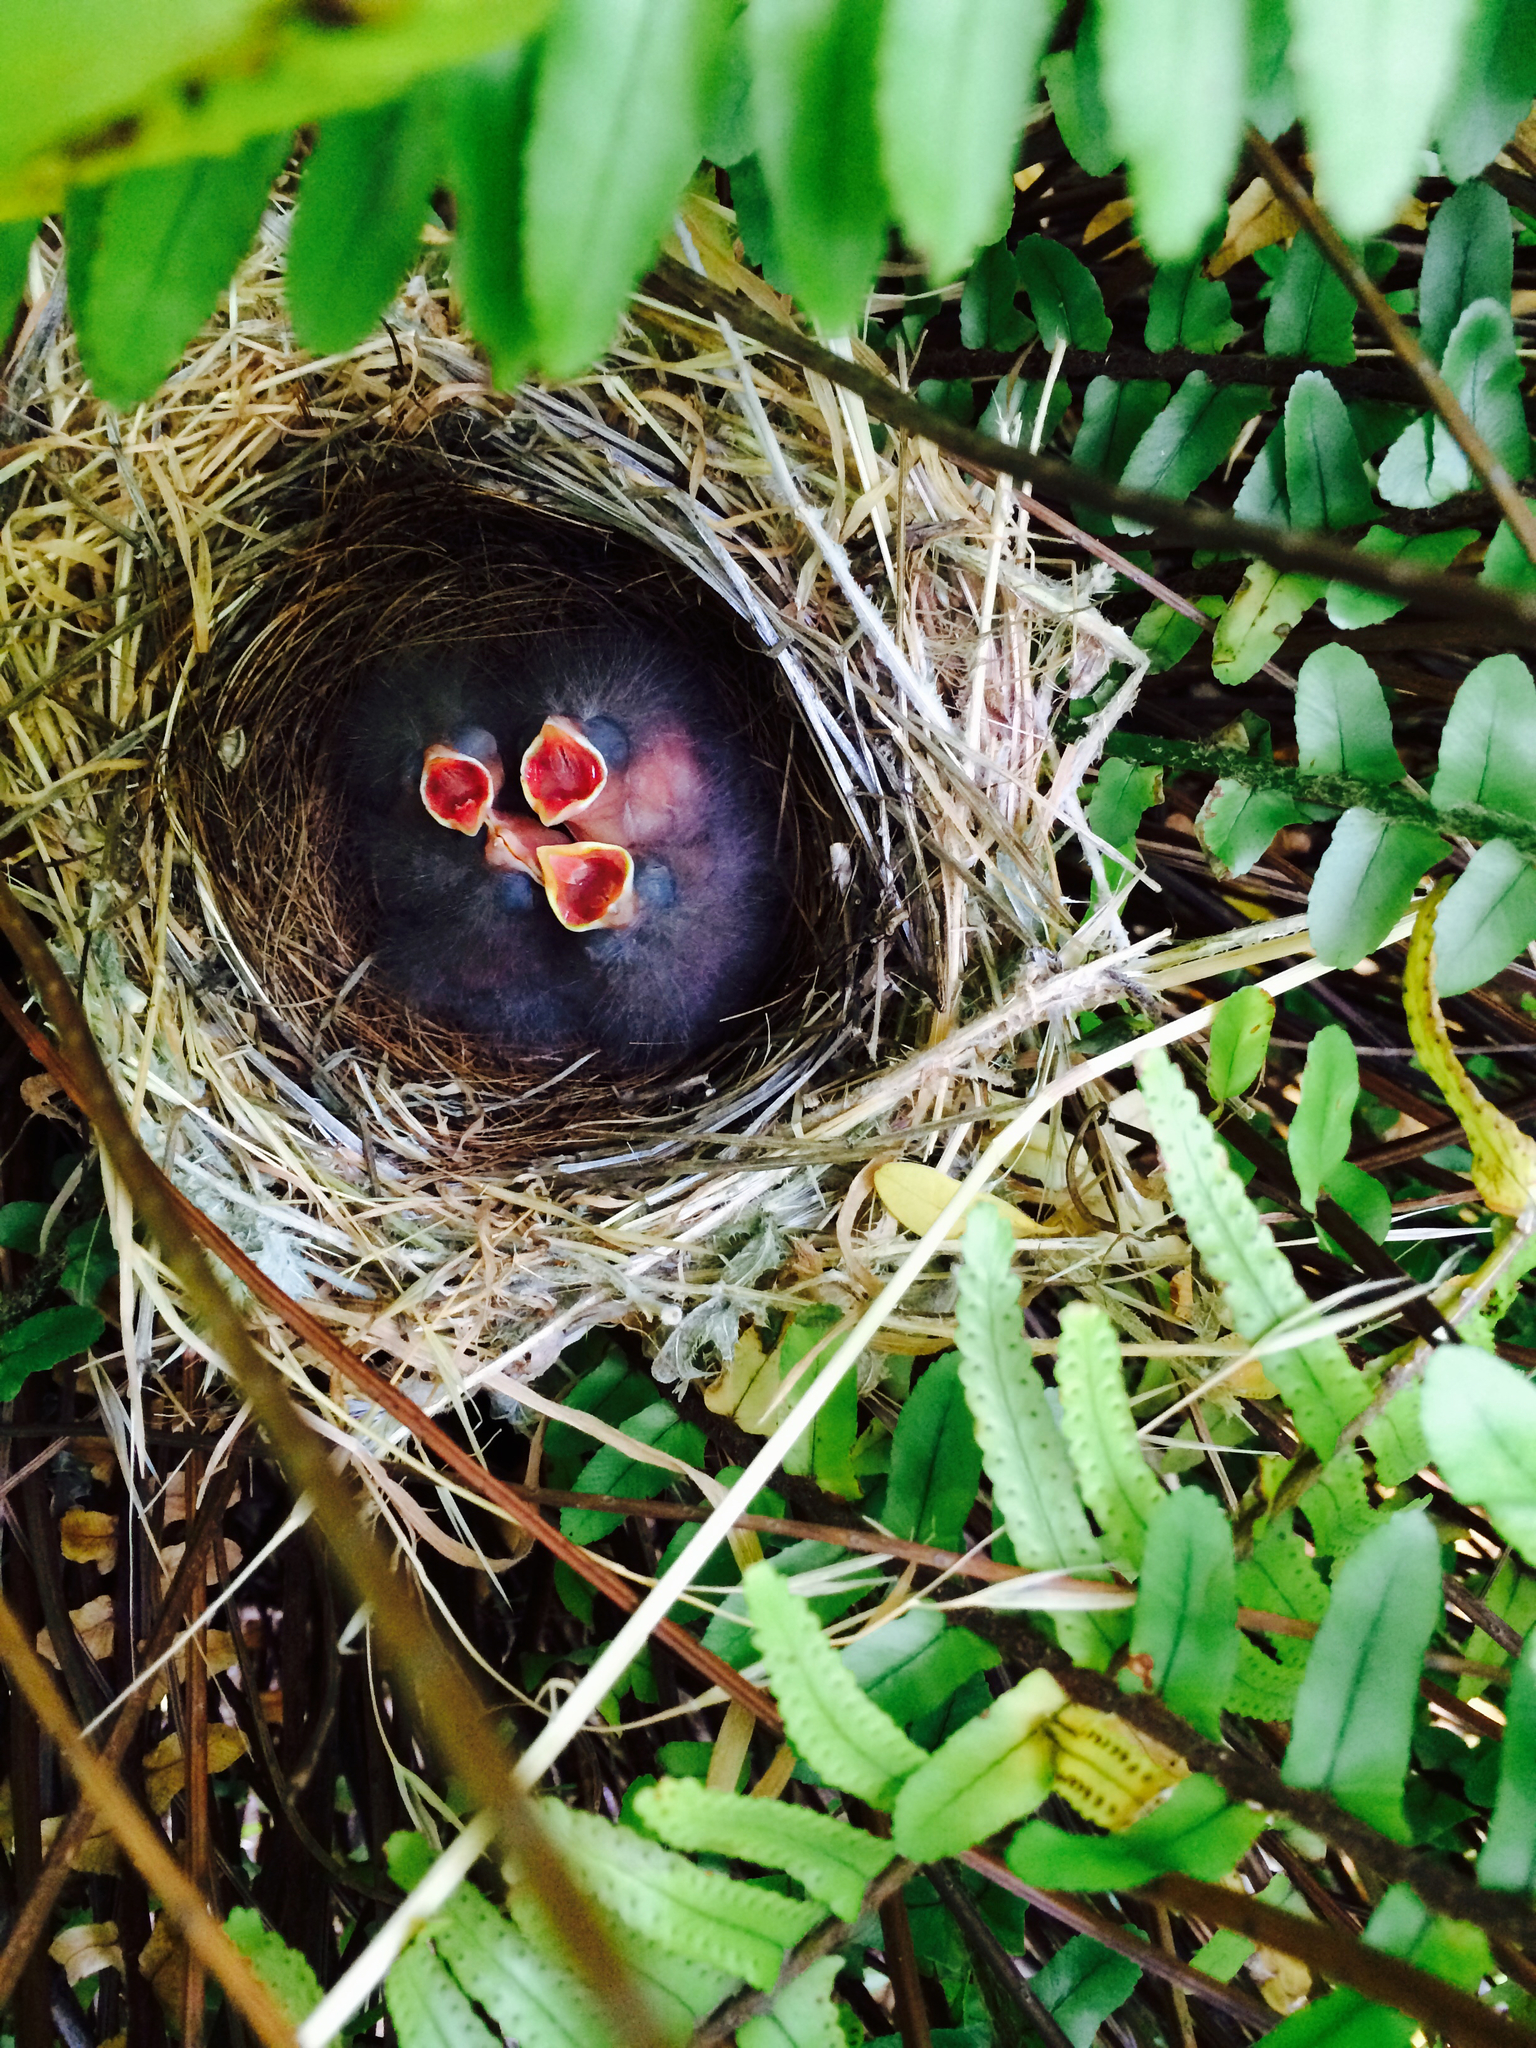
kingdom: Animalia
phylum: Chordata
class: Aves
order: Passeriformes
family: Fringillidae
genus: Haemorhous
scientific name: Haemorhous mexicanus
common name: House finch
